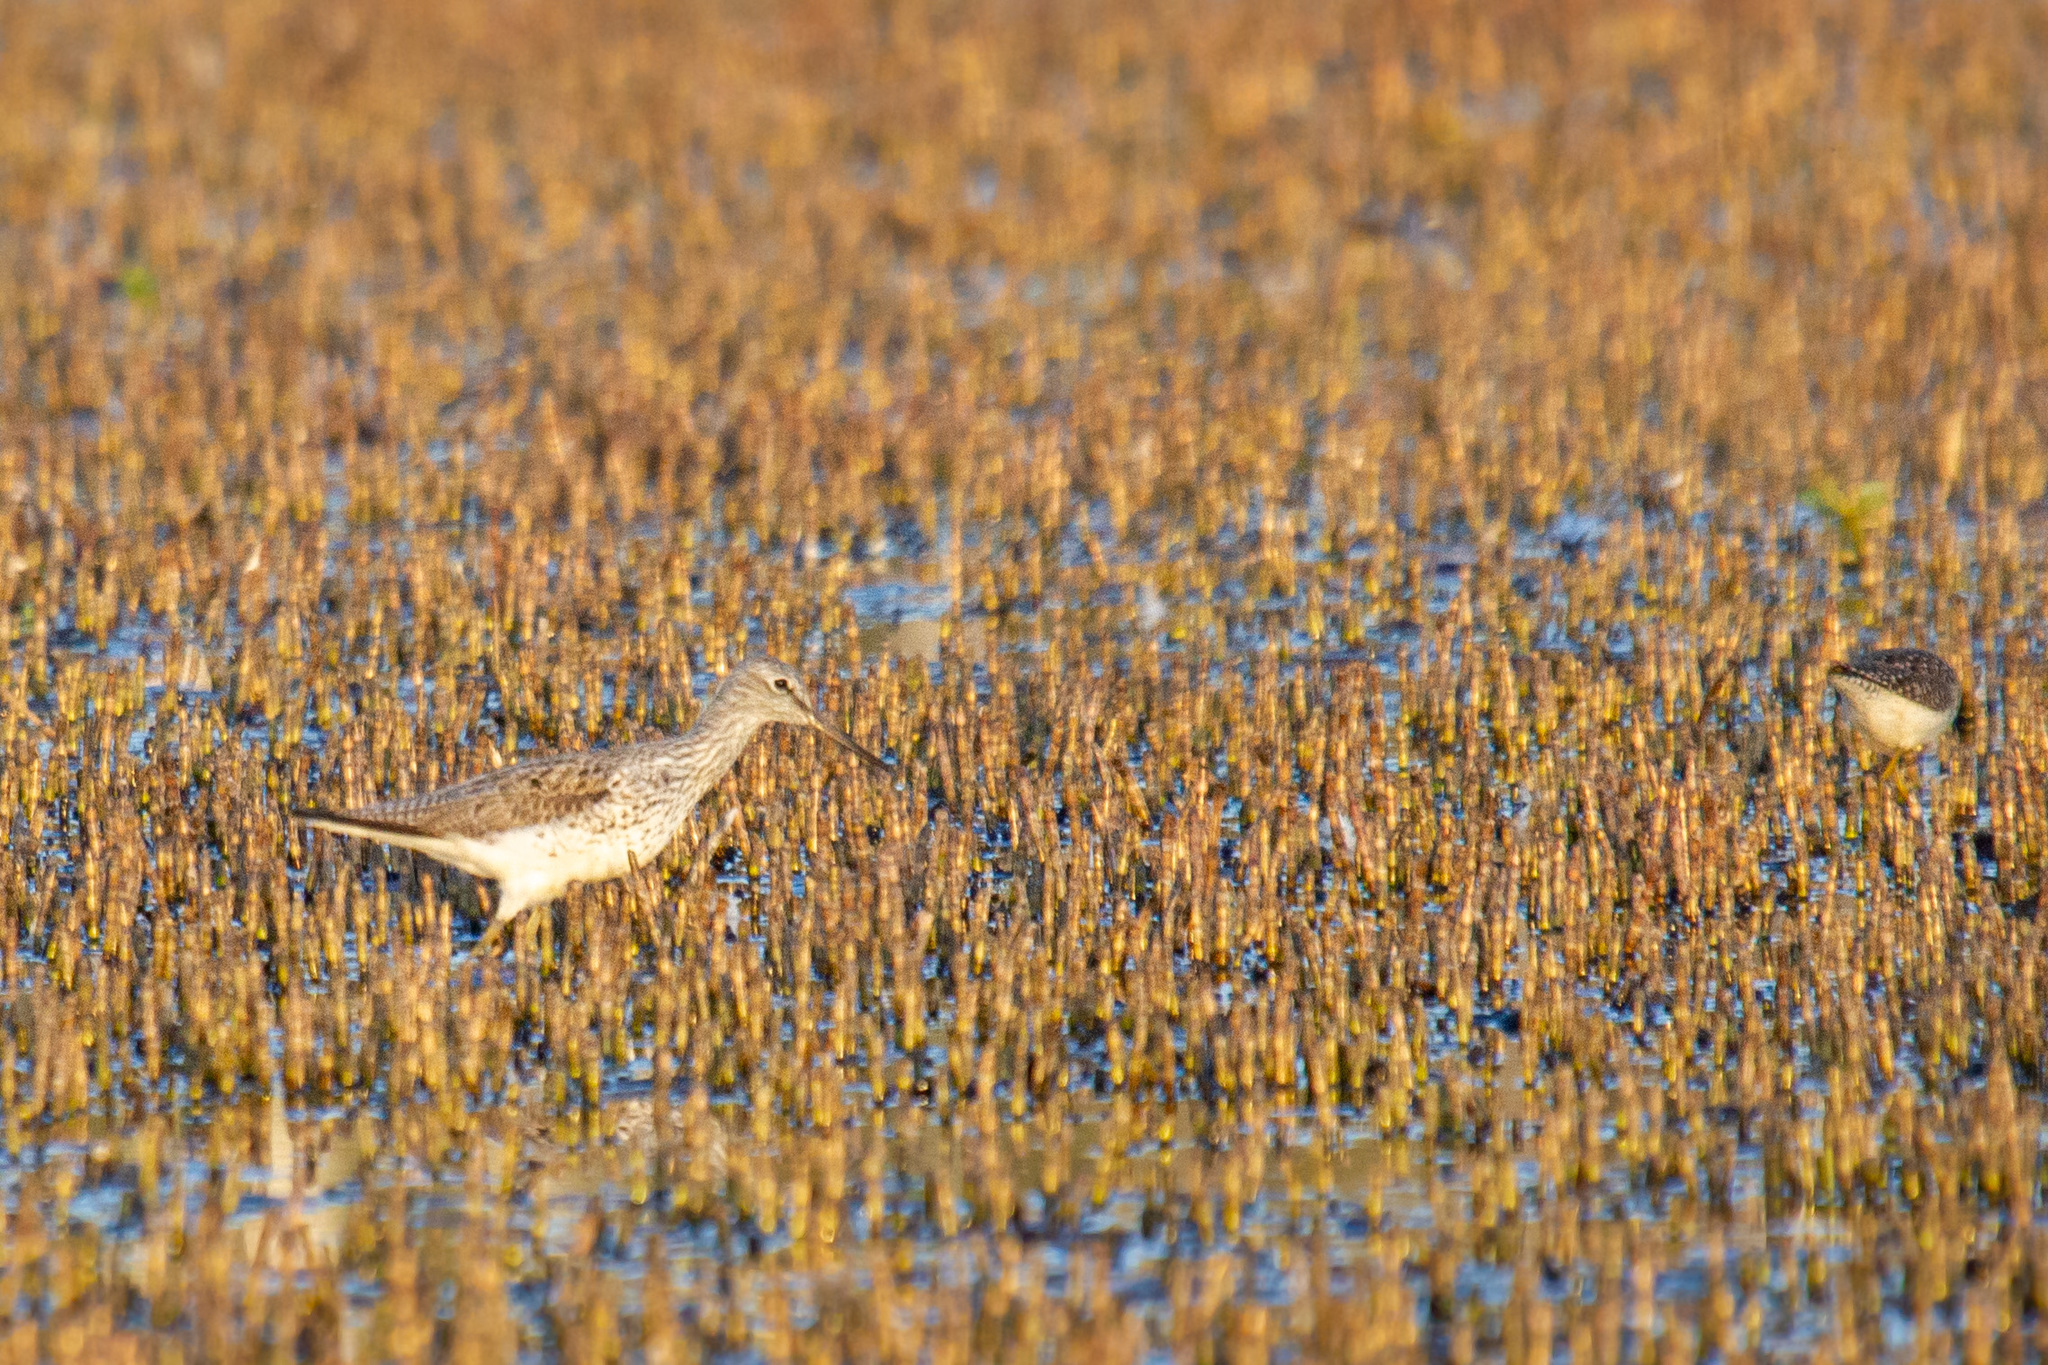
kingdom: Animalia
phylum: Chordata
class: Aves
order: Charadriiformes
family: Scolopacidae
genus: Tringa
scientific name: Tringa nebularia
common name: Common greenshank
